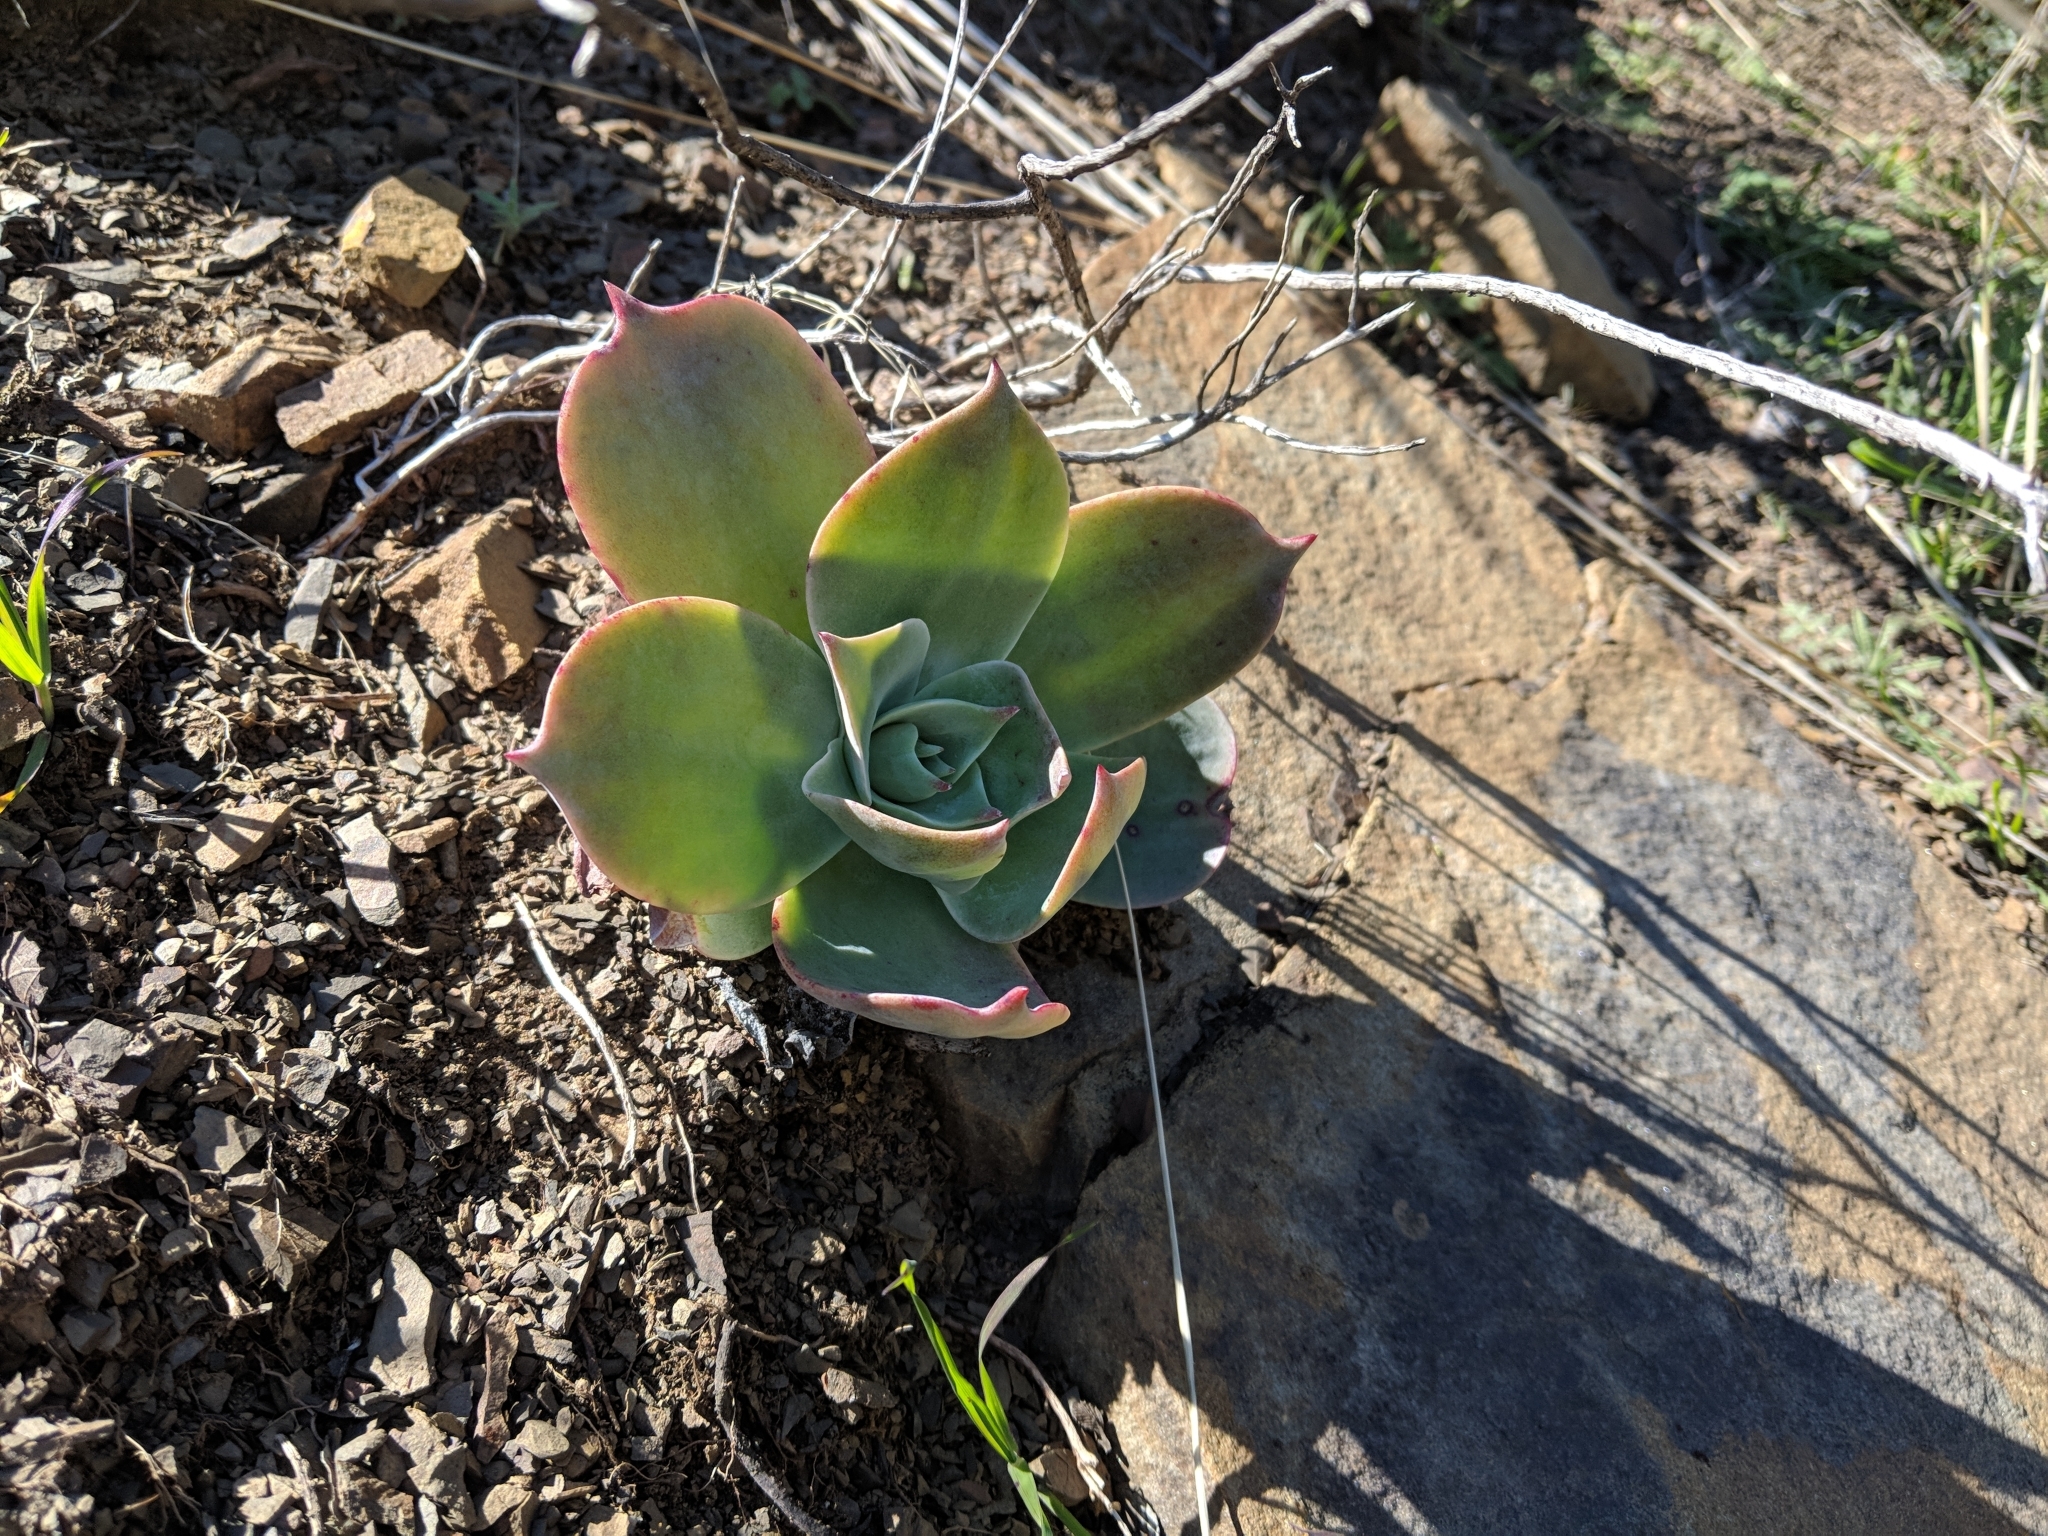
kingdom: Plantae
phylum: Tracheophyta
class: Magnoliopsida
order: Saxifragales
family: Crassulaceae
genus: Dudleya
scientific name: Dudleya pulverulenta
